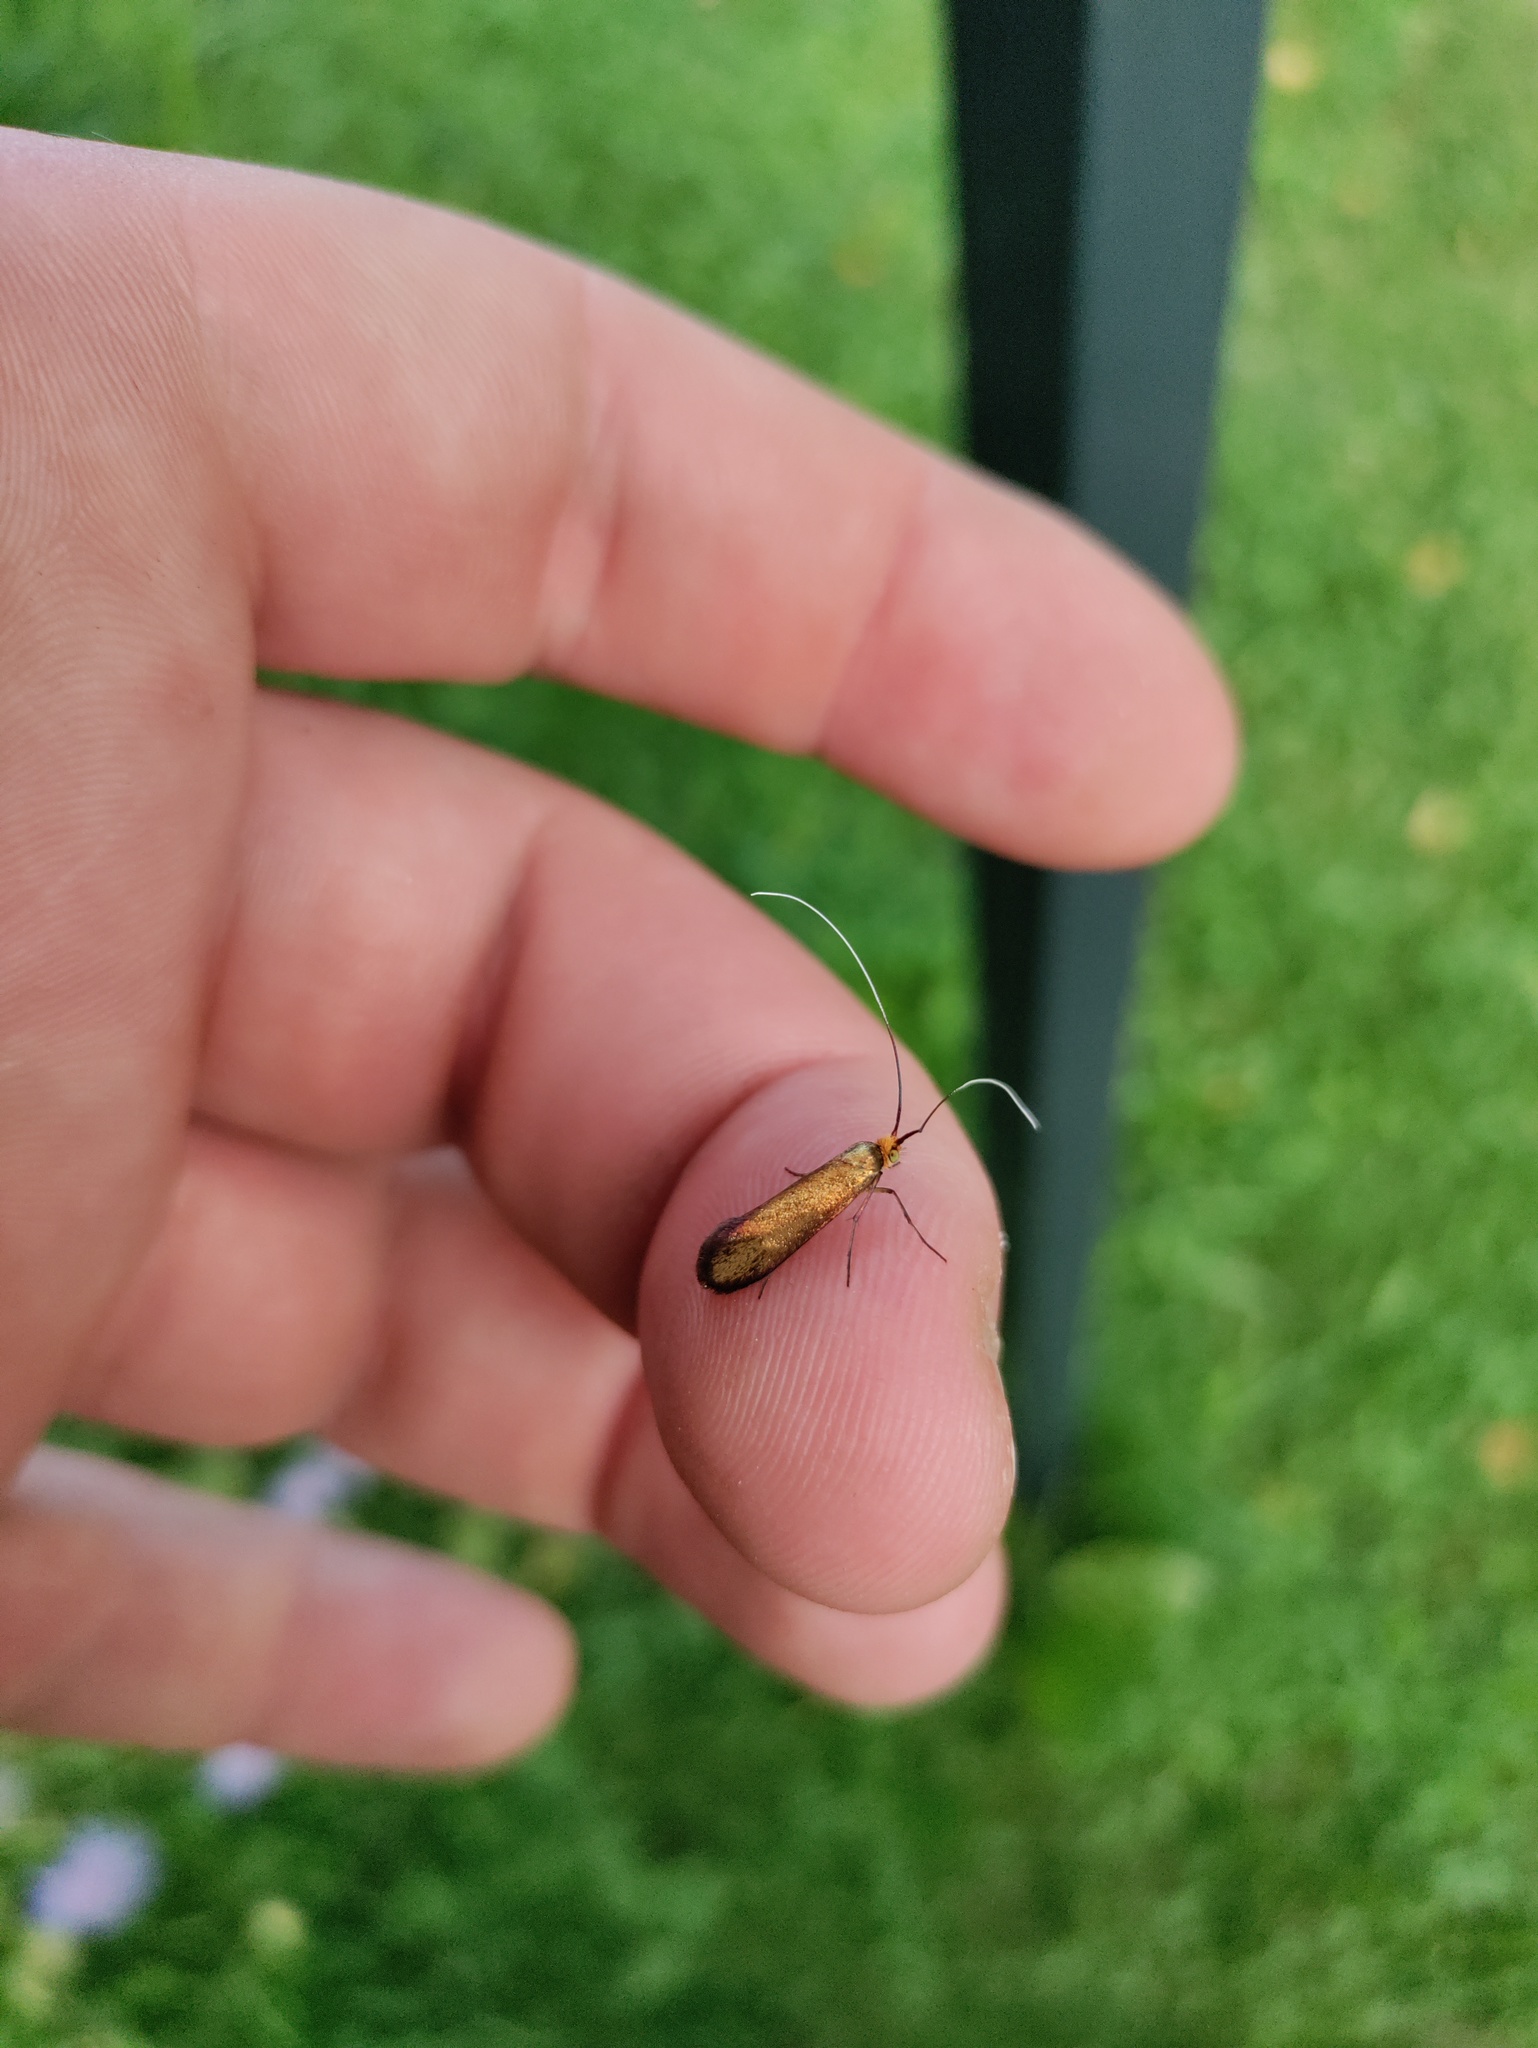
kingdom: Animalia
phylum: Arthropoda
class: Insecta
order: Lepidoptera
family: Adelidae
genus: Nemophora
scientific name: Nemophora metallica
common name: Brassy long-horn
